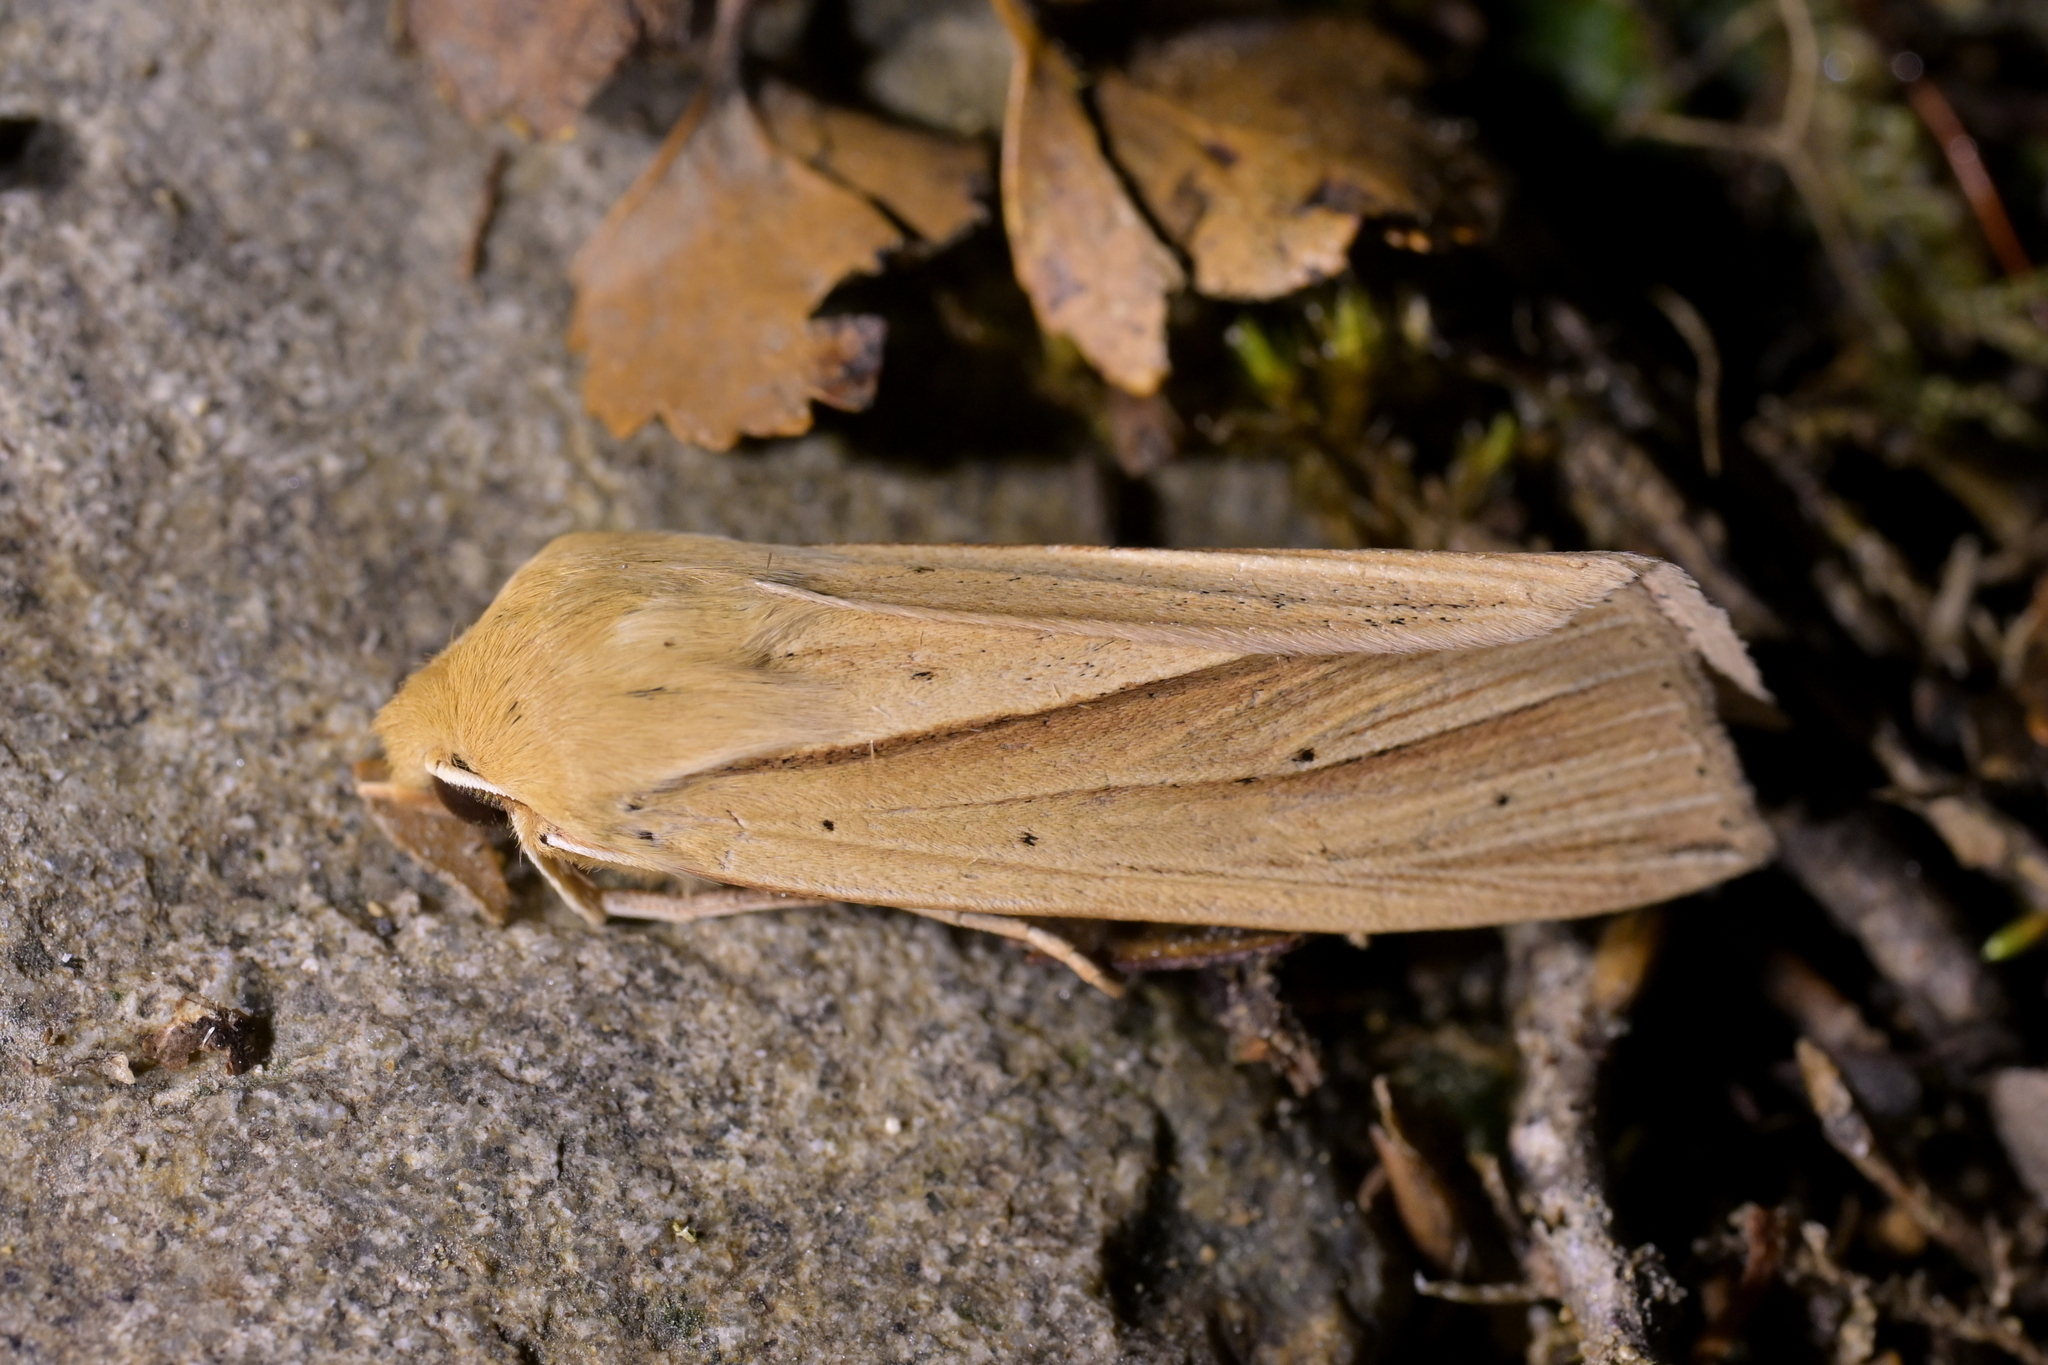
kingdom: Animalia
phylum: Arthropoda
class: Insecta
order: Lepidoptera
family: Noctuidae
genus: Ichneutica
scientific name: Ichneutica sulcana
